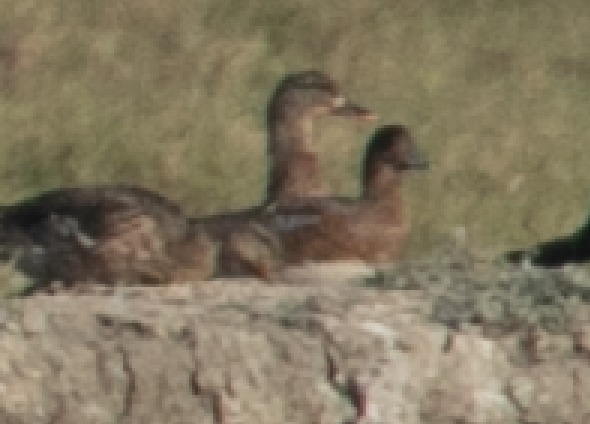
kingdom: Animalia
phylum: Chordata
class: Aves
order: Anseriformes
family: Anatidae
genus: Mareca
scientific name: Mareca penelope
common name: Eurasian wigeon
